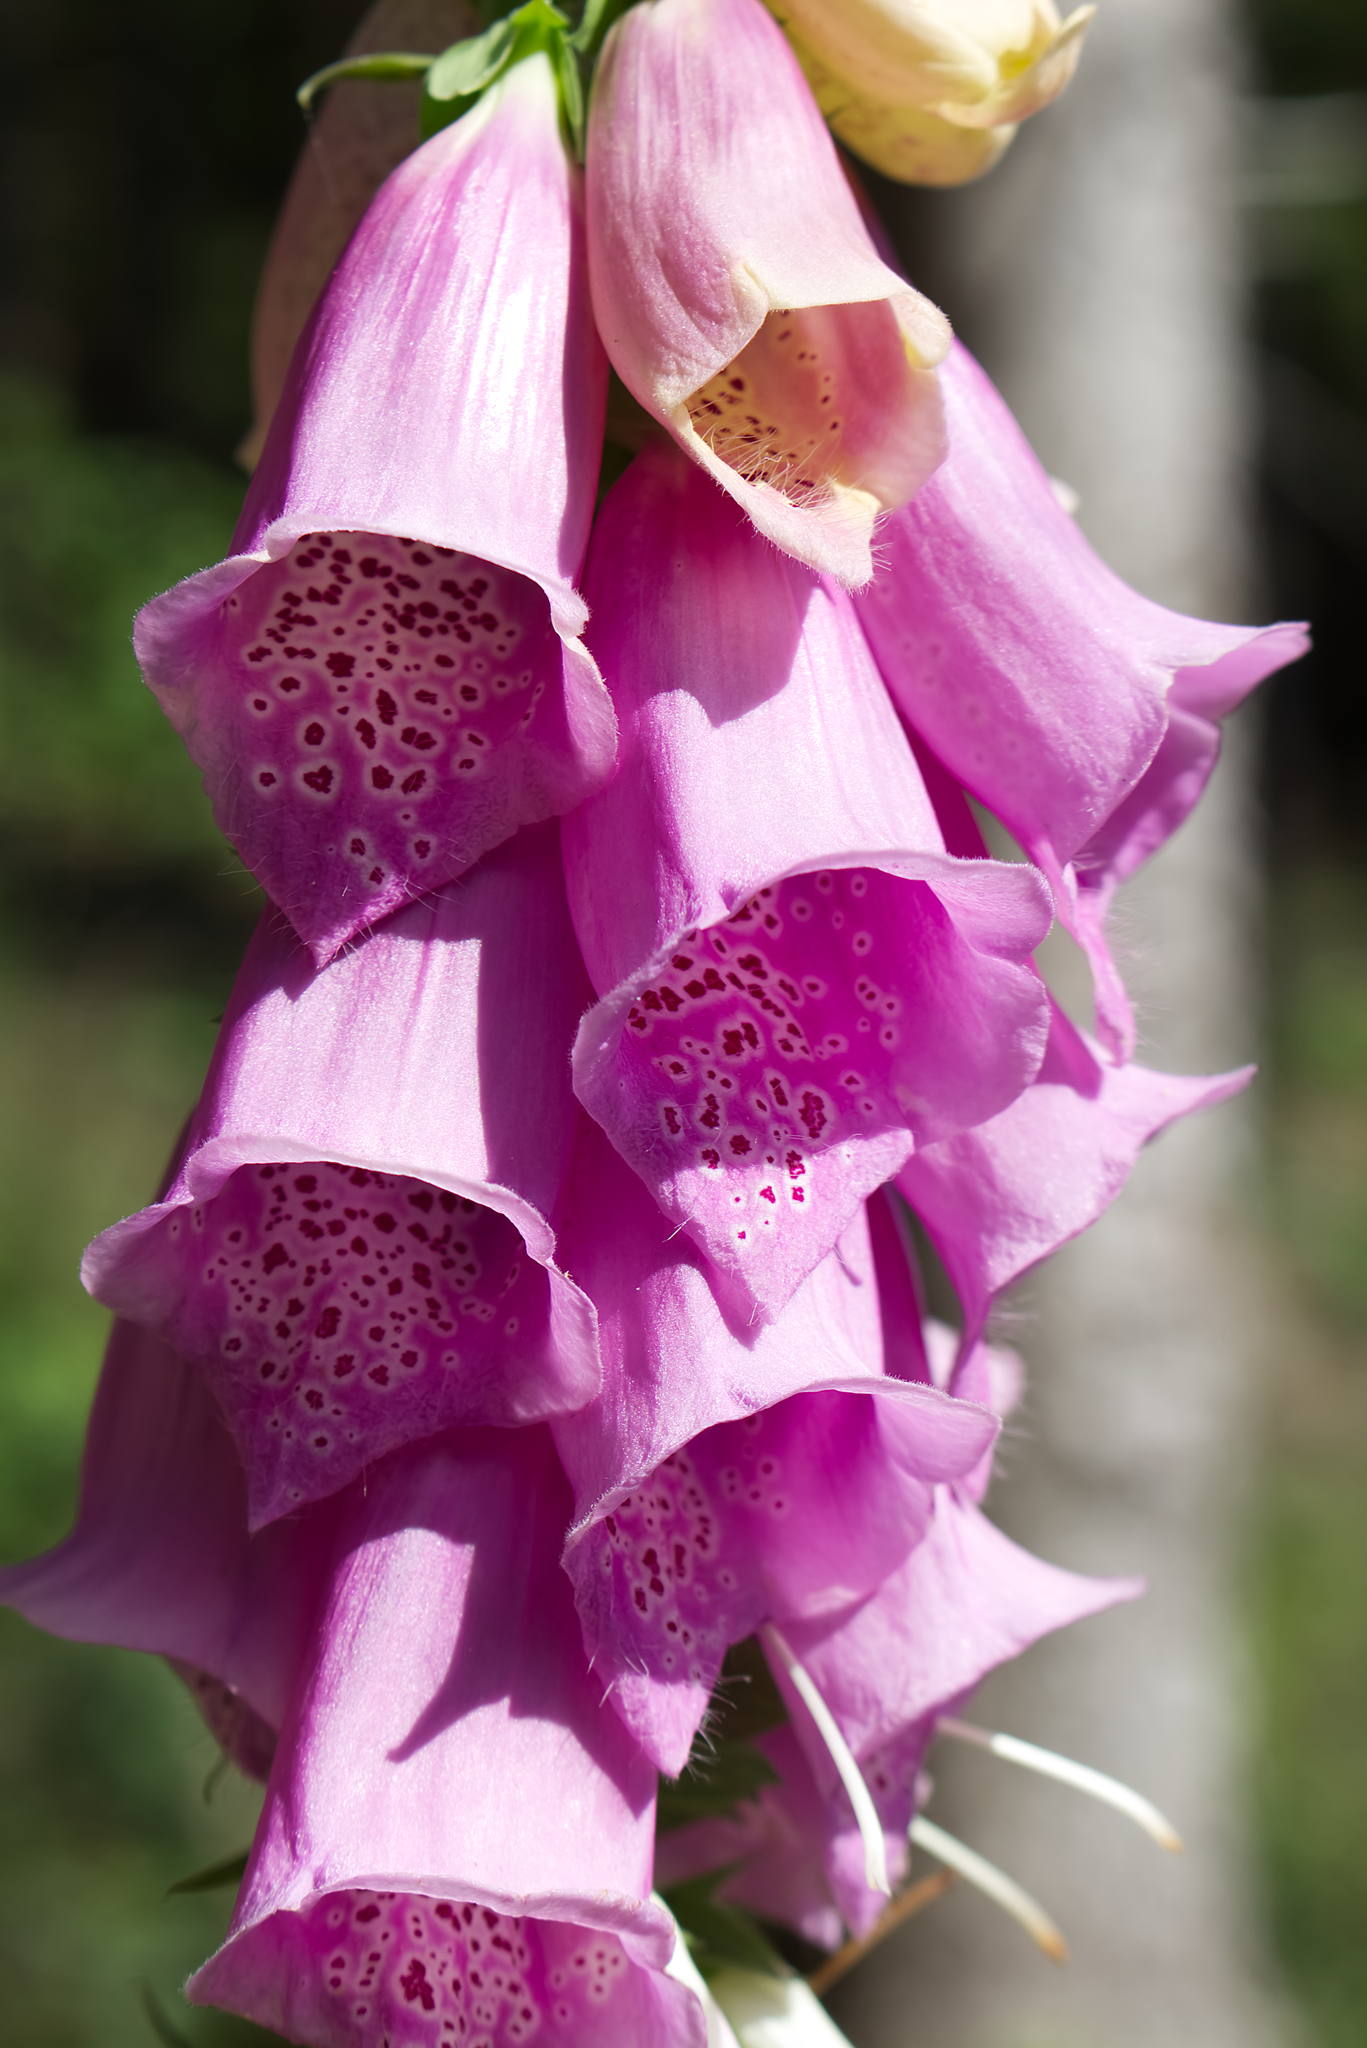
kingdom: Plantae
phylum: Tracheophyta
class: Magnoliopsida
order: Lamiales
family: Plantaginaceae
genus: Digitalis
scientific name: Digitalis purpurea
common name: Foxglove
